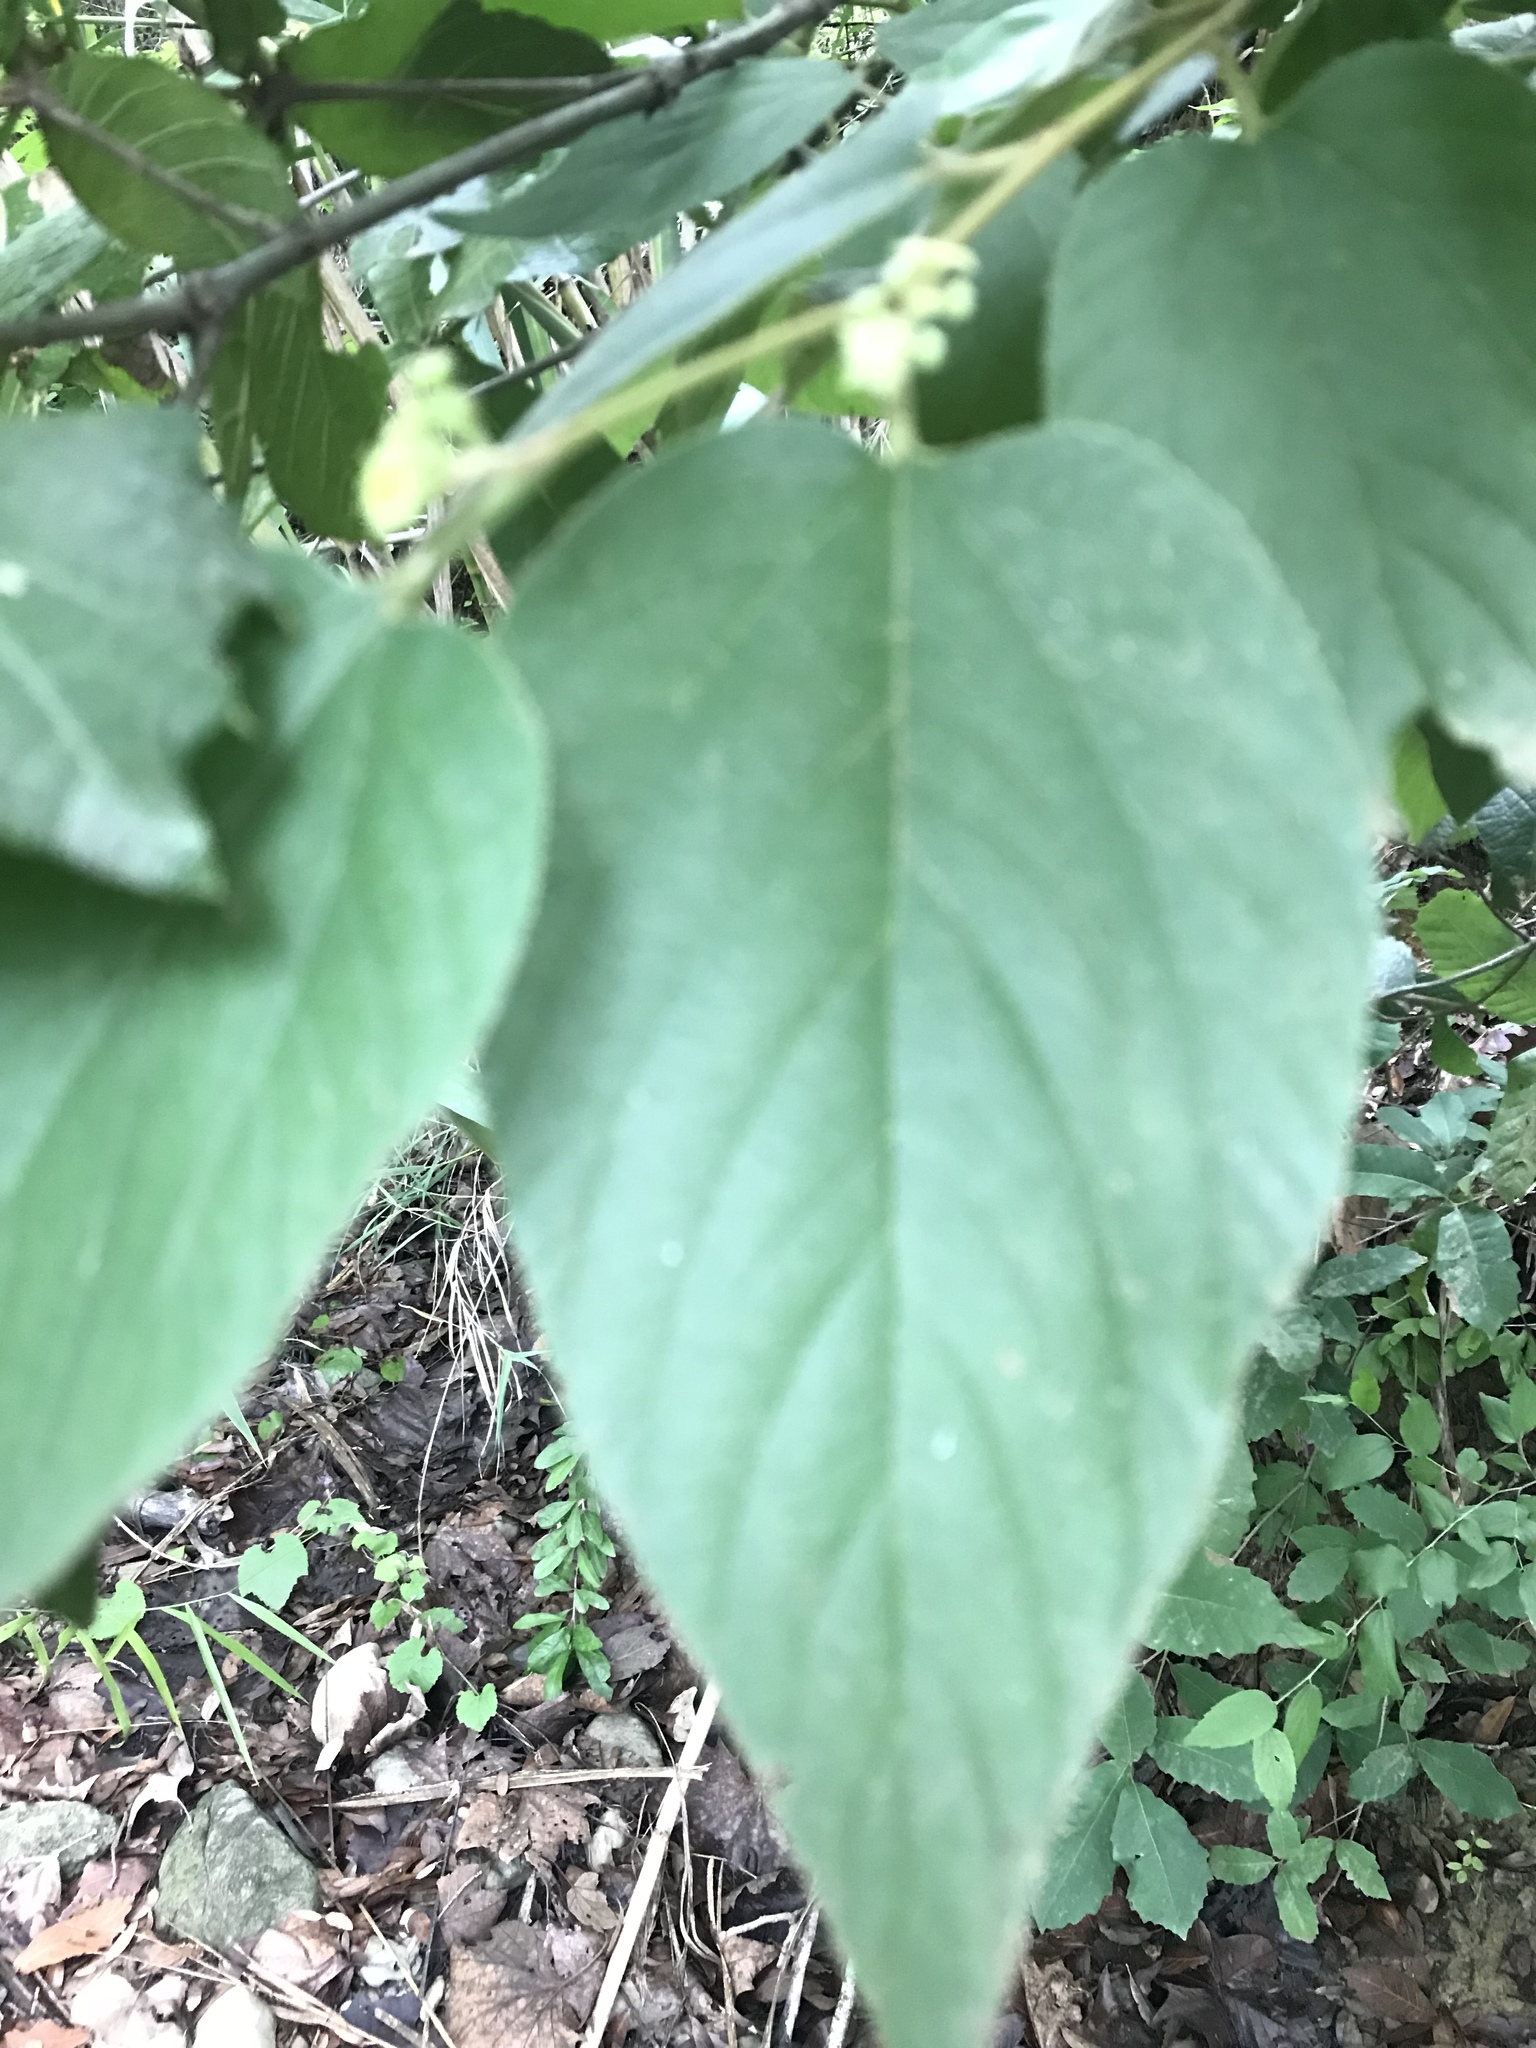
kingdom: Plantae
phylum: Tracheophyta
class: Magnoliopsida
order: Rosales
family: Rhamnaceae
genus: Colubrina
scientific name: Colubrina greggii
